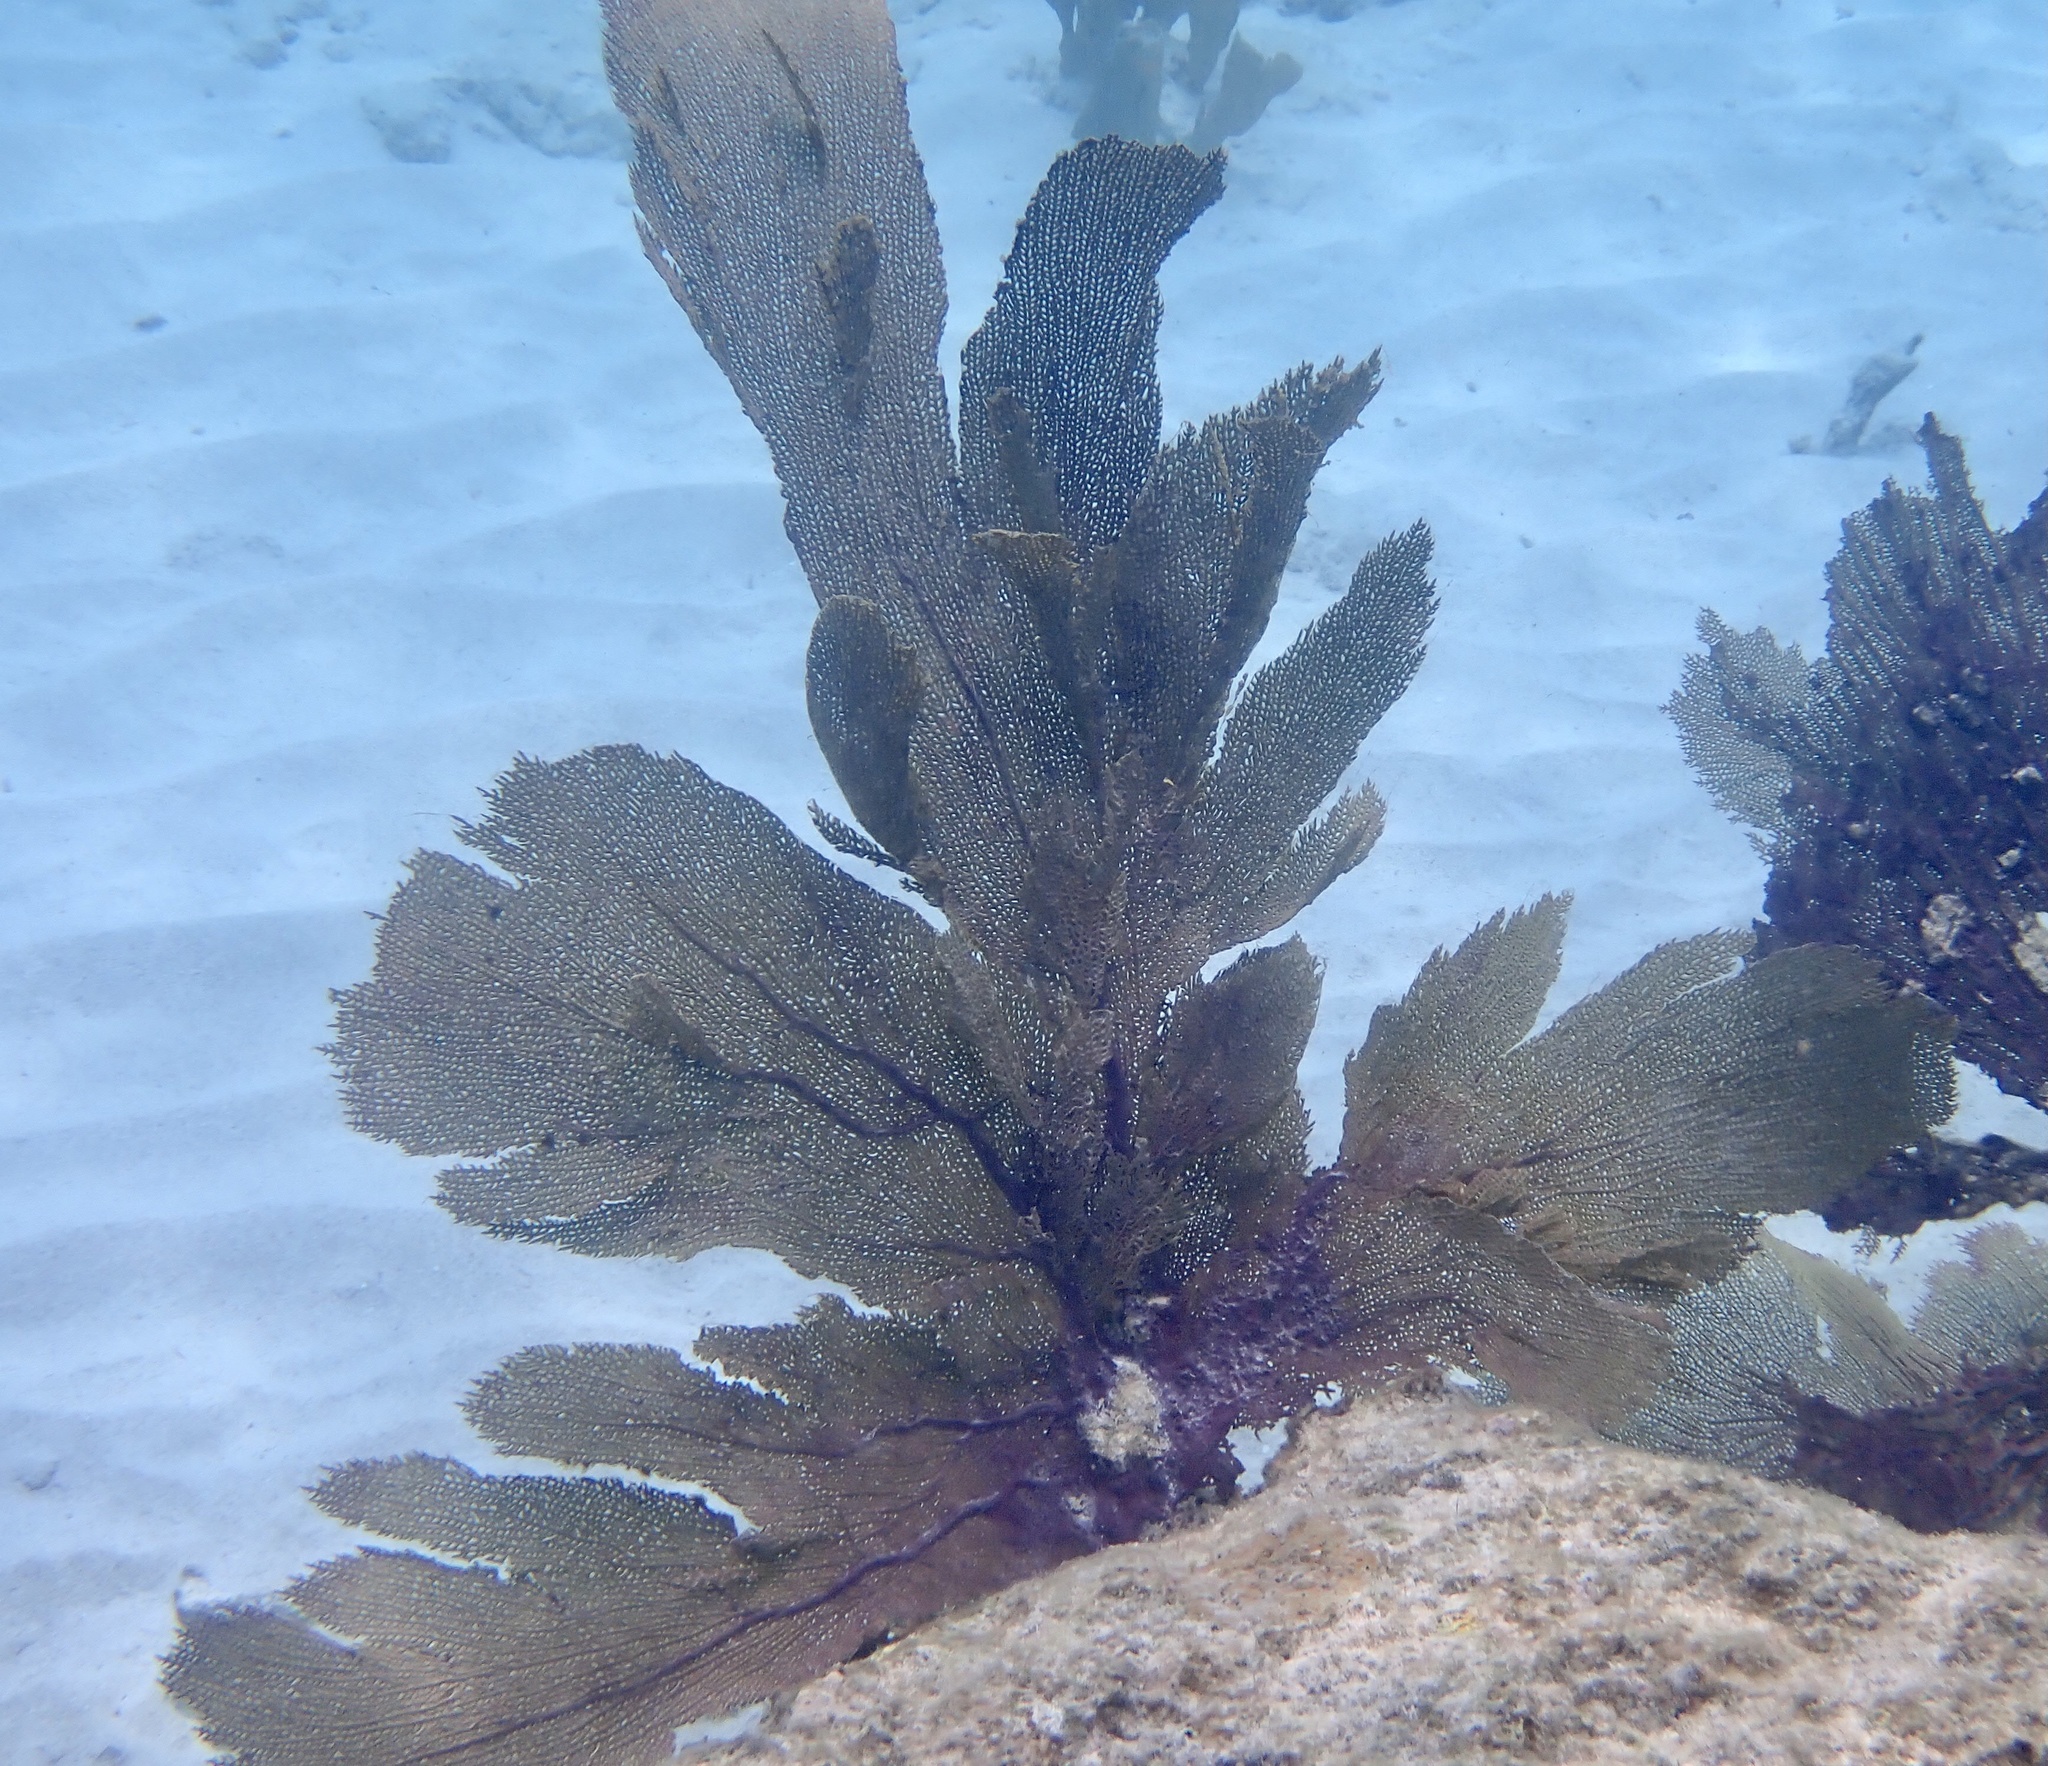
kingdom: Animalia
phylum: Cnidaria
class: Anthozoa
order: Malacalcyonacea
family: Gorgoniidae
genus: Gorgonia
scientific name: Gorgonia ventalina
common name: Common sea fan
